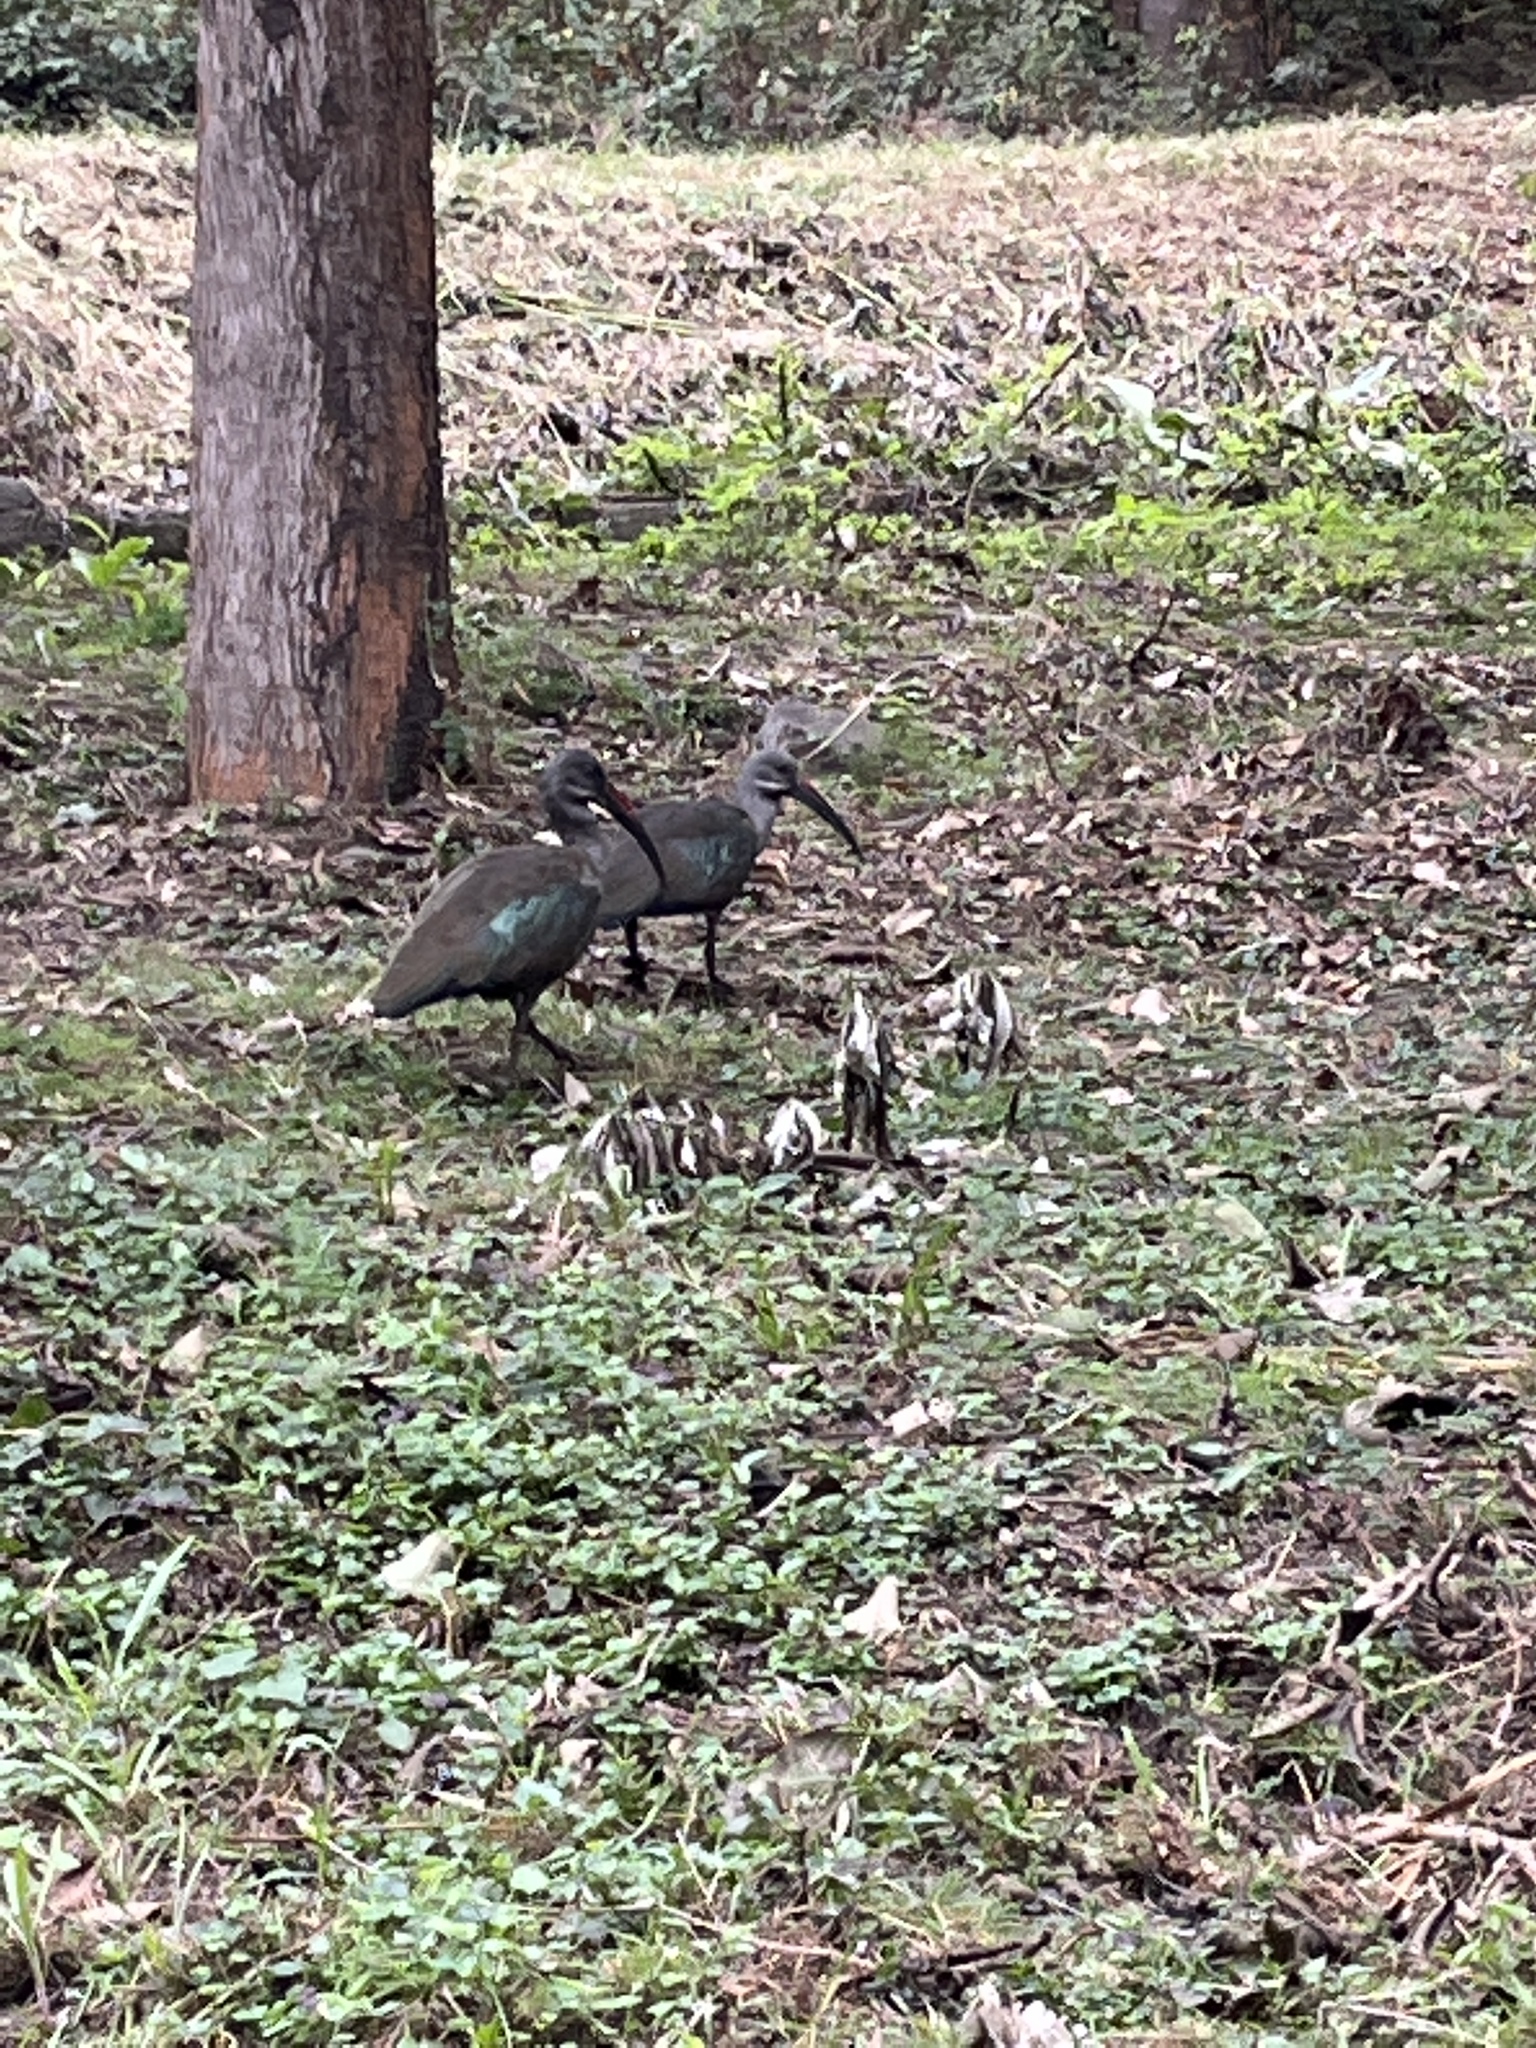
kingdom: Animalia
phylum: Chordata
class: Aves
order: Pelecaniformes
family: Threskiornithidae
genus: Bostrychia
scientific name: Bostrychia hagedash
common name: Hadada ibis
